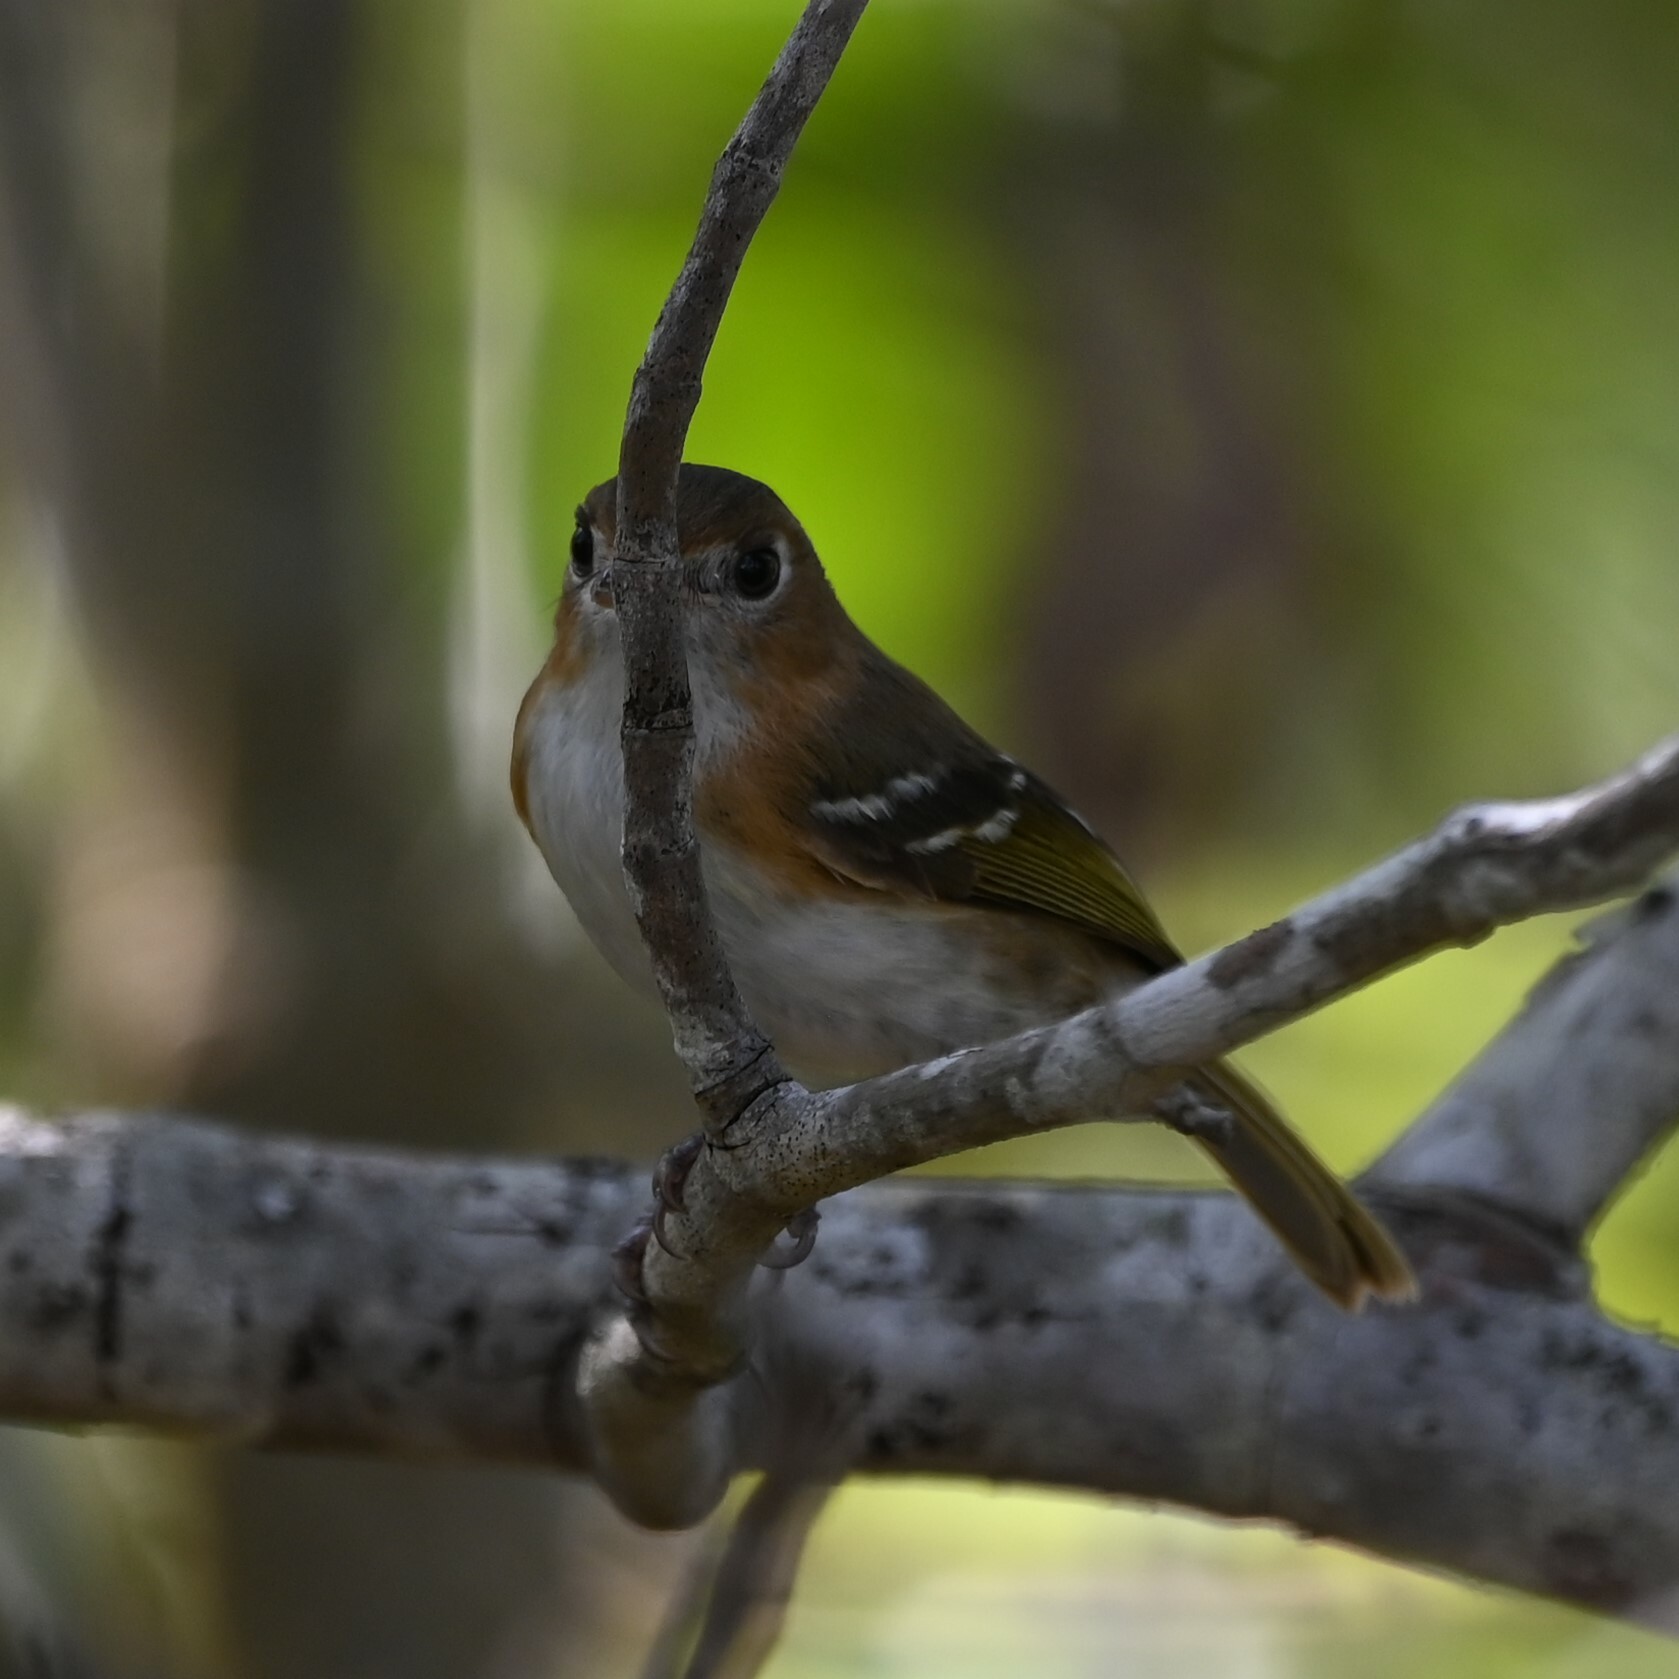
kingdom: Animalia
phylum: Chordata
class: Aves
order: Passeriformes
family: Vireonidae
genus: Vireo
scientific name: Vireo bairdi
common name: Cozumel vireo
